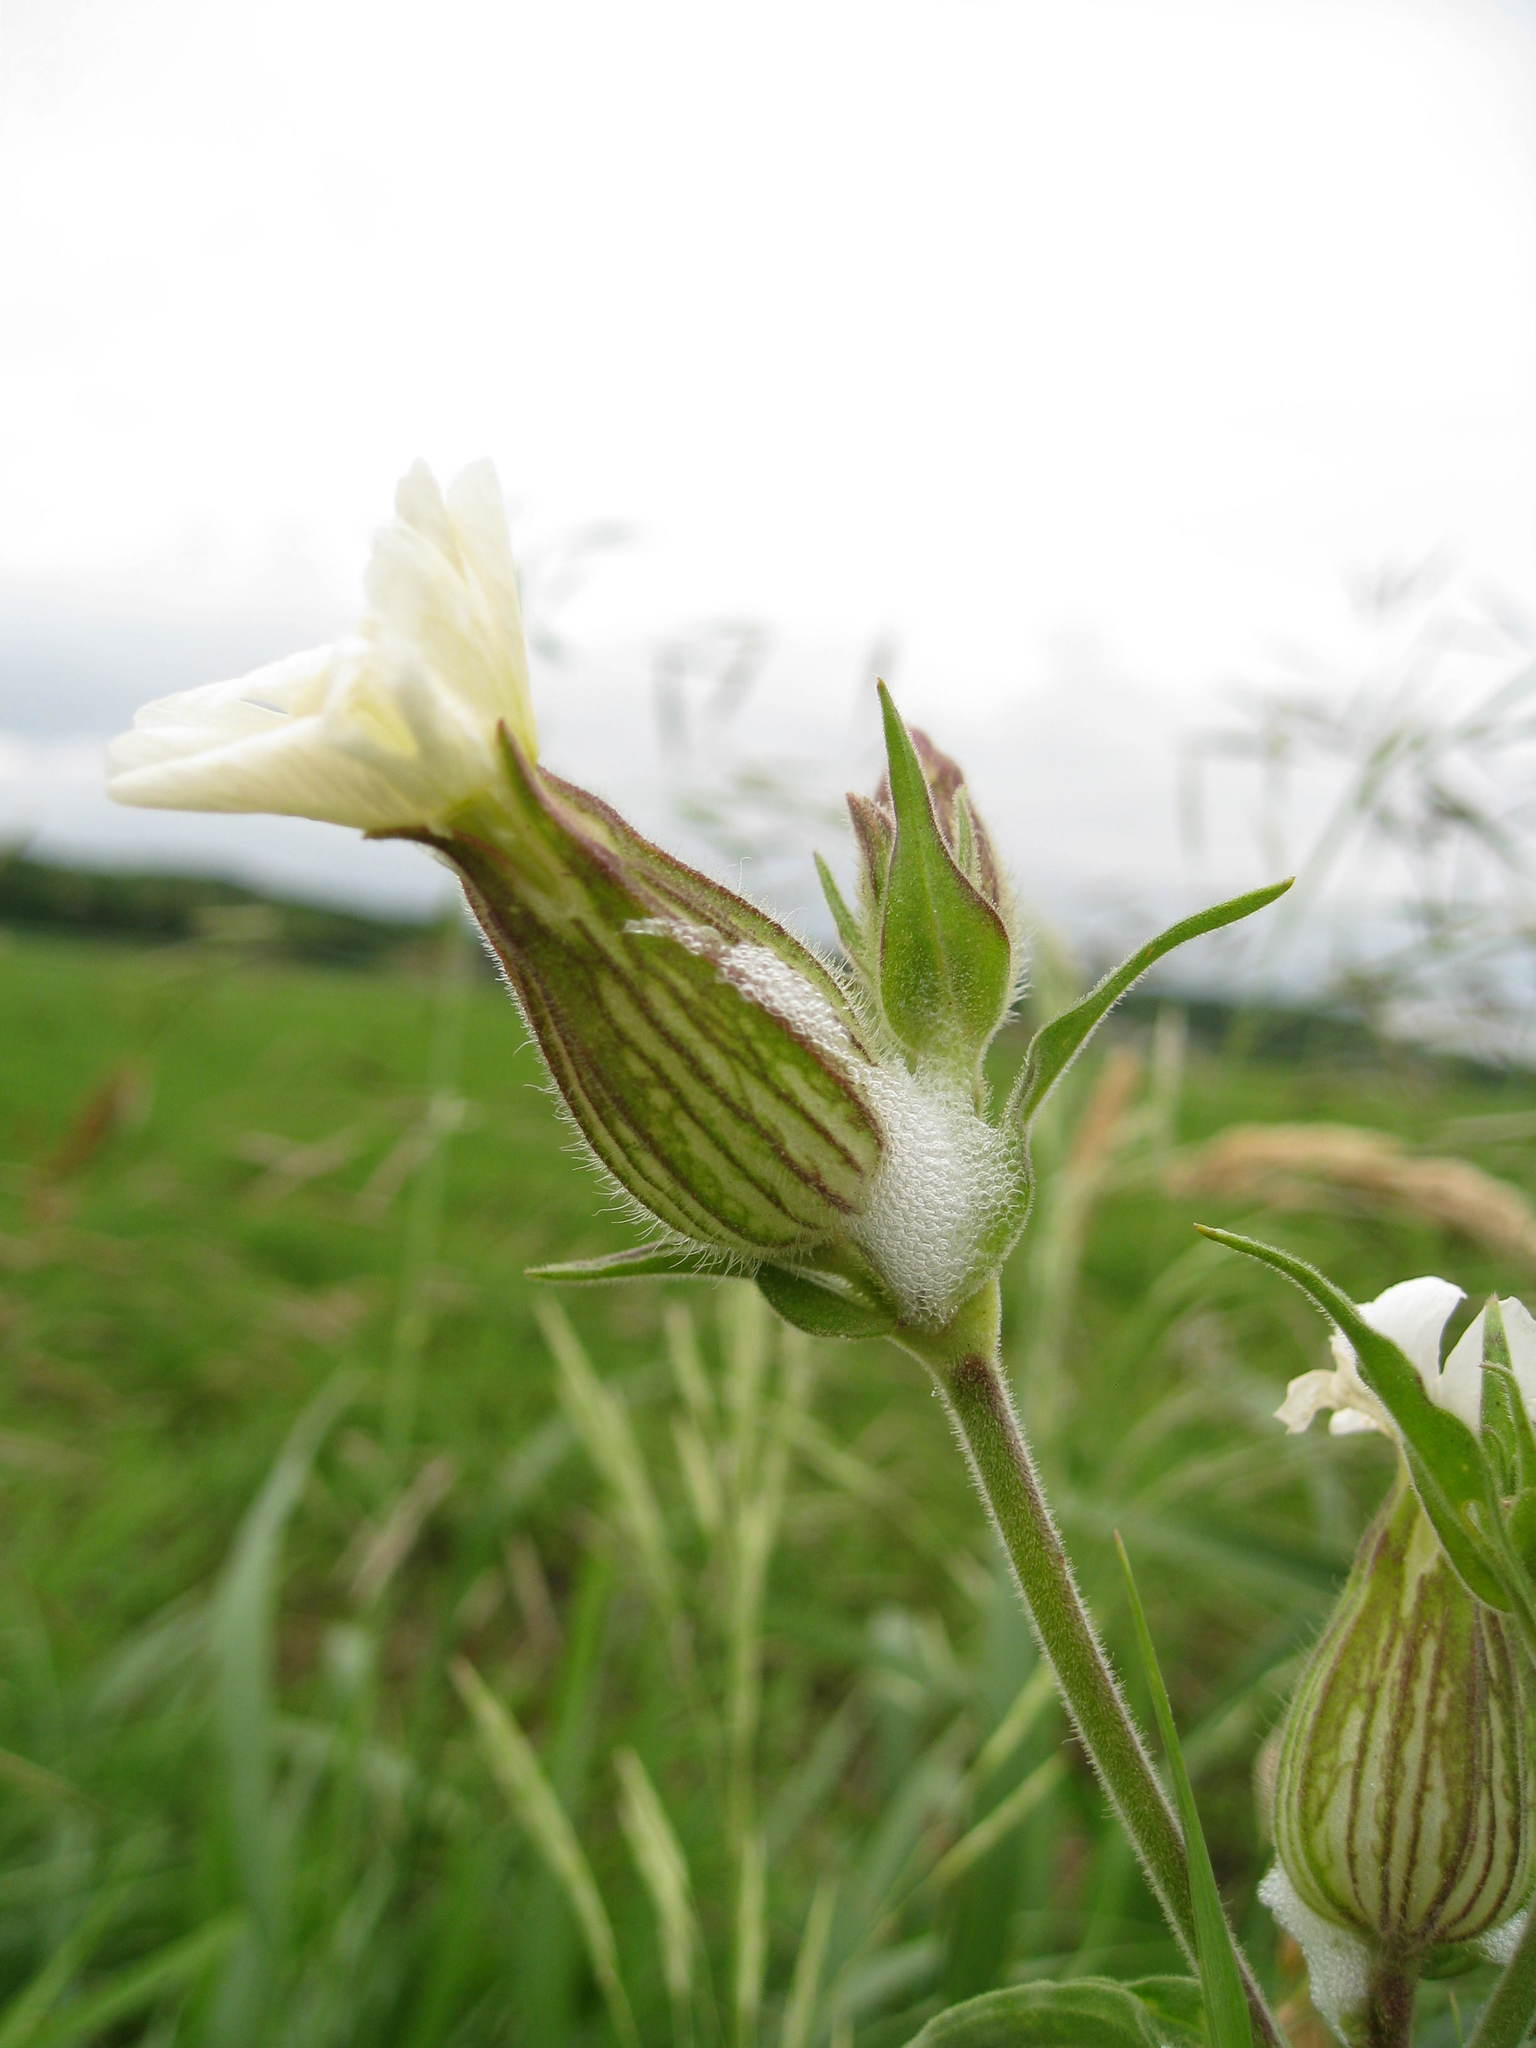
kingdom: Plantae
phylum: Tracheophyta
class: Magnoliopsida
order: Caryophyllales
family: Caryophyllaceae
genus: Silene
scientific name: Silene latifolia
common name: White campion
